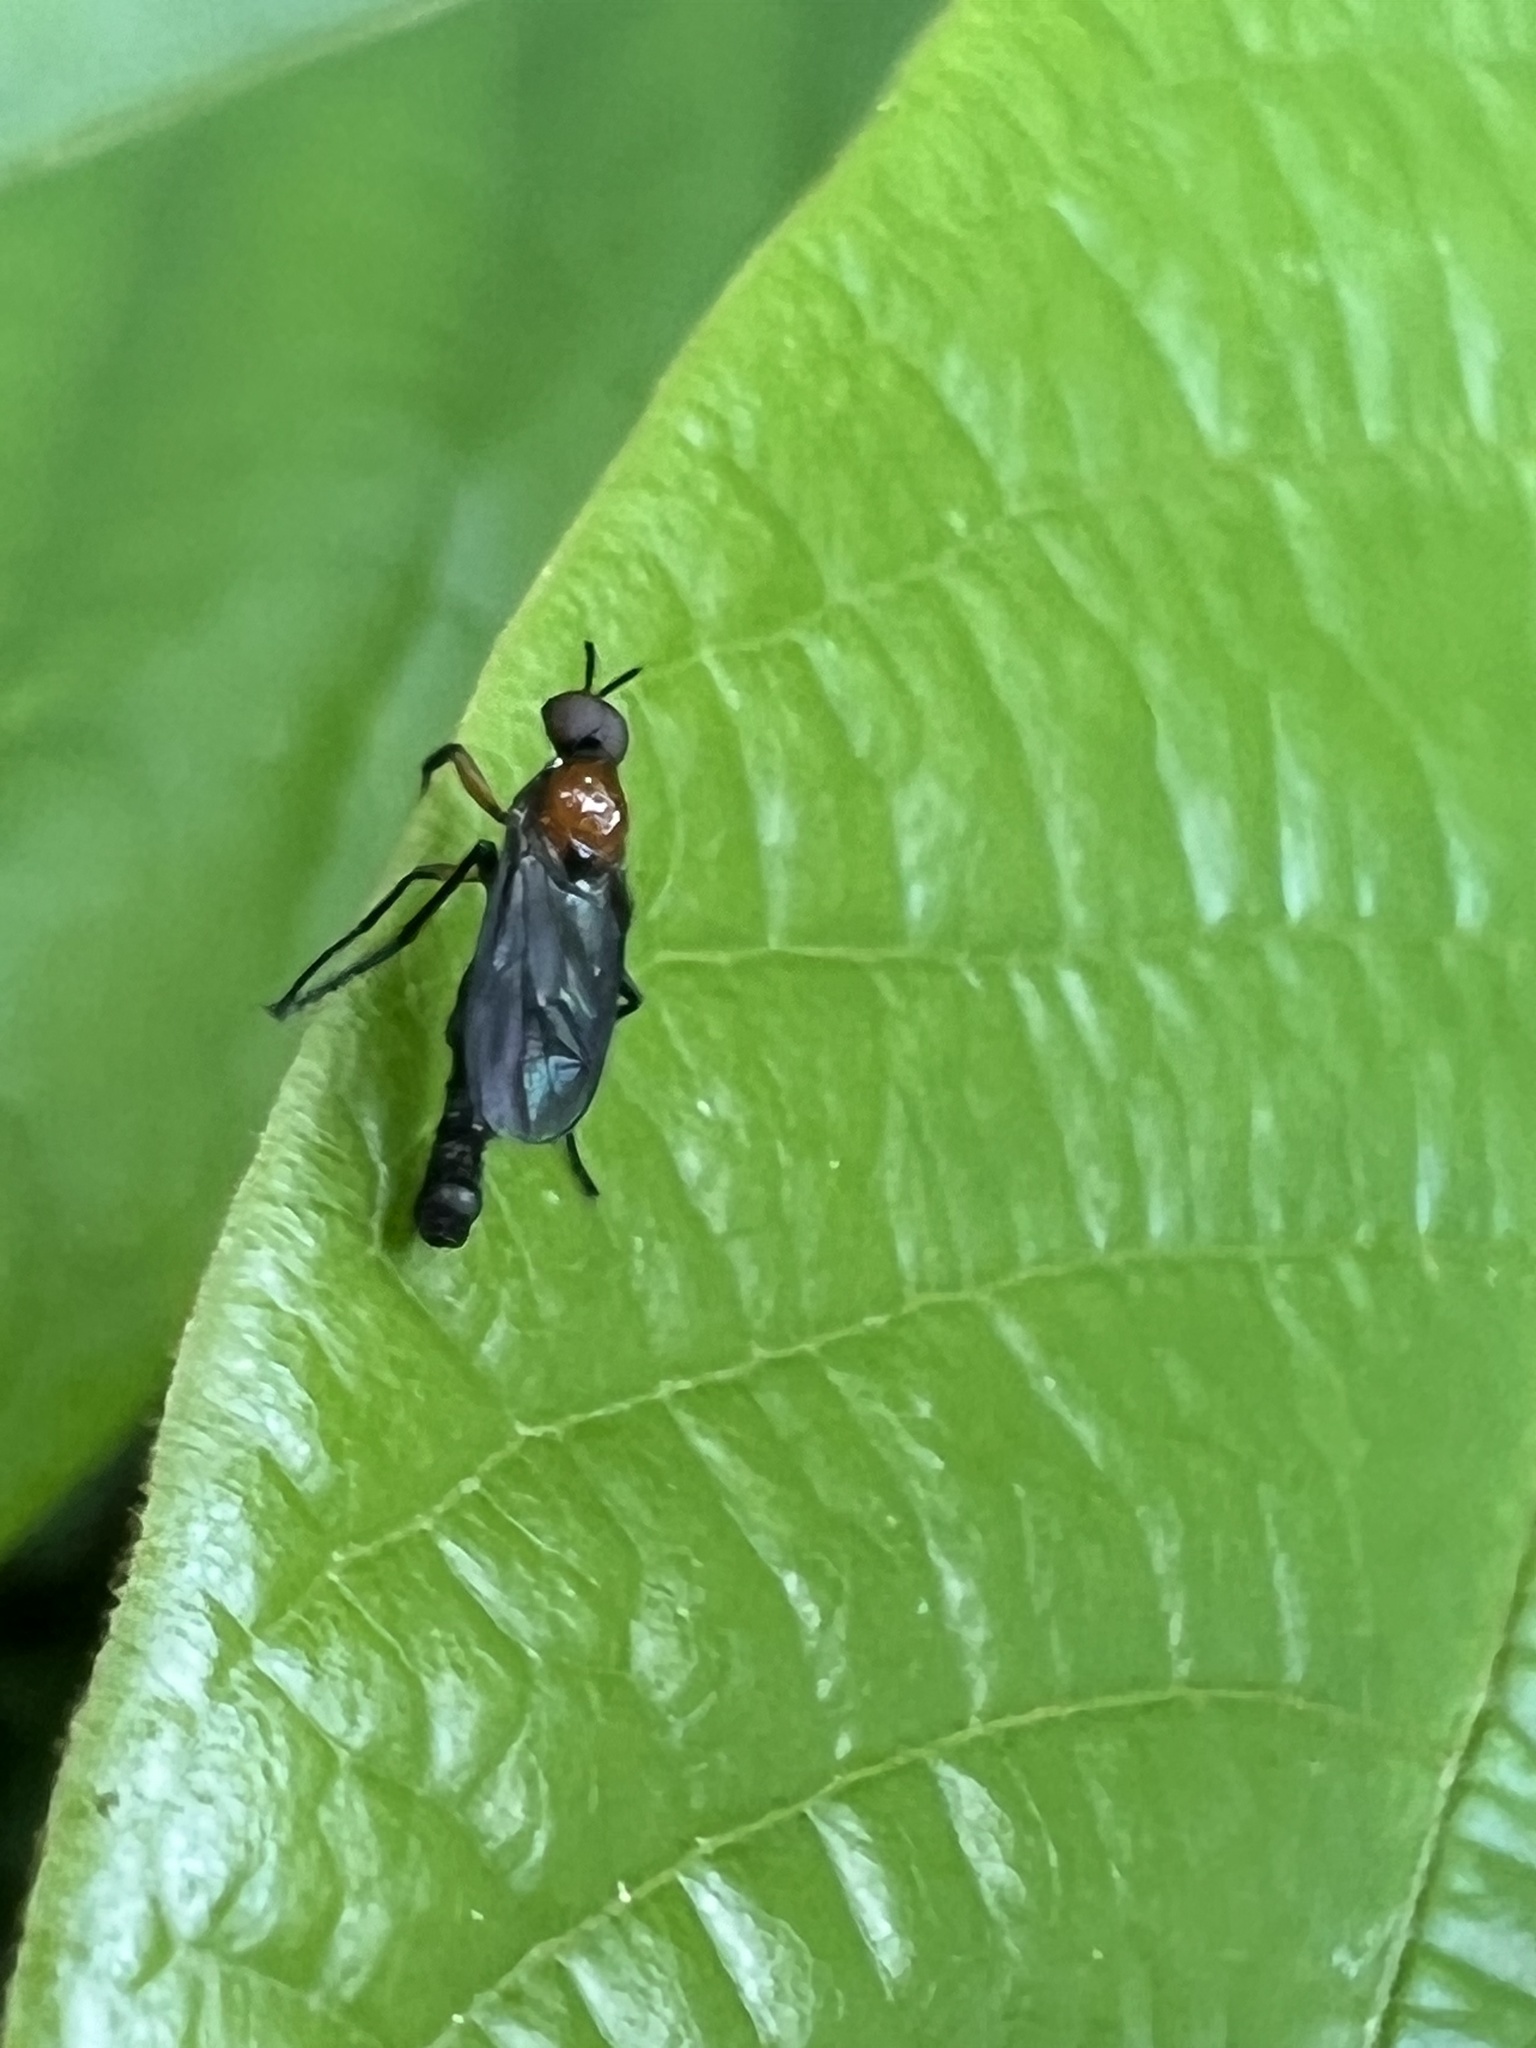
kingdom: Animalia
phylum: Arthropoda
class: Insecta
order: Diptera
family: Bibionidae
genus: Dilophus
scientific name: Dilophus spinipes
